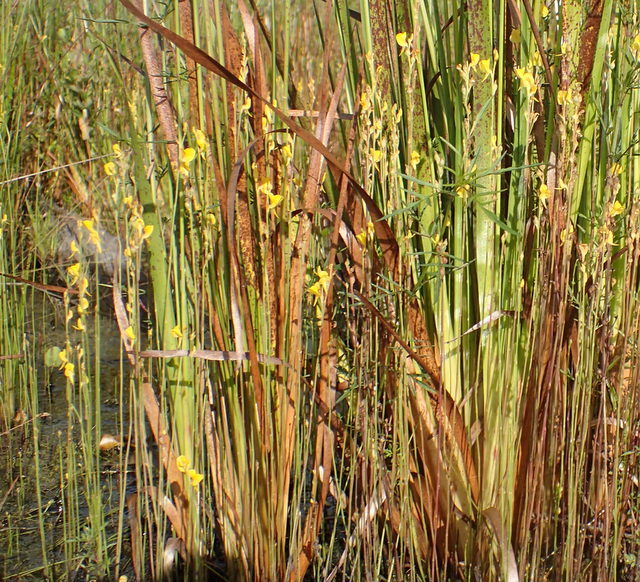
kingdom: Plantae
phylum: Tracheophyta
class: Magnoliopsida
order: Lamiales
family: Lentibulariaceae
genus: Utricularia
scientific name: Utricularia juncea
